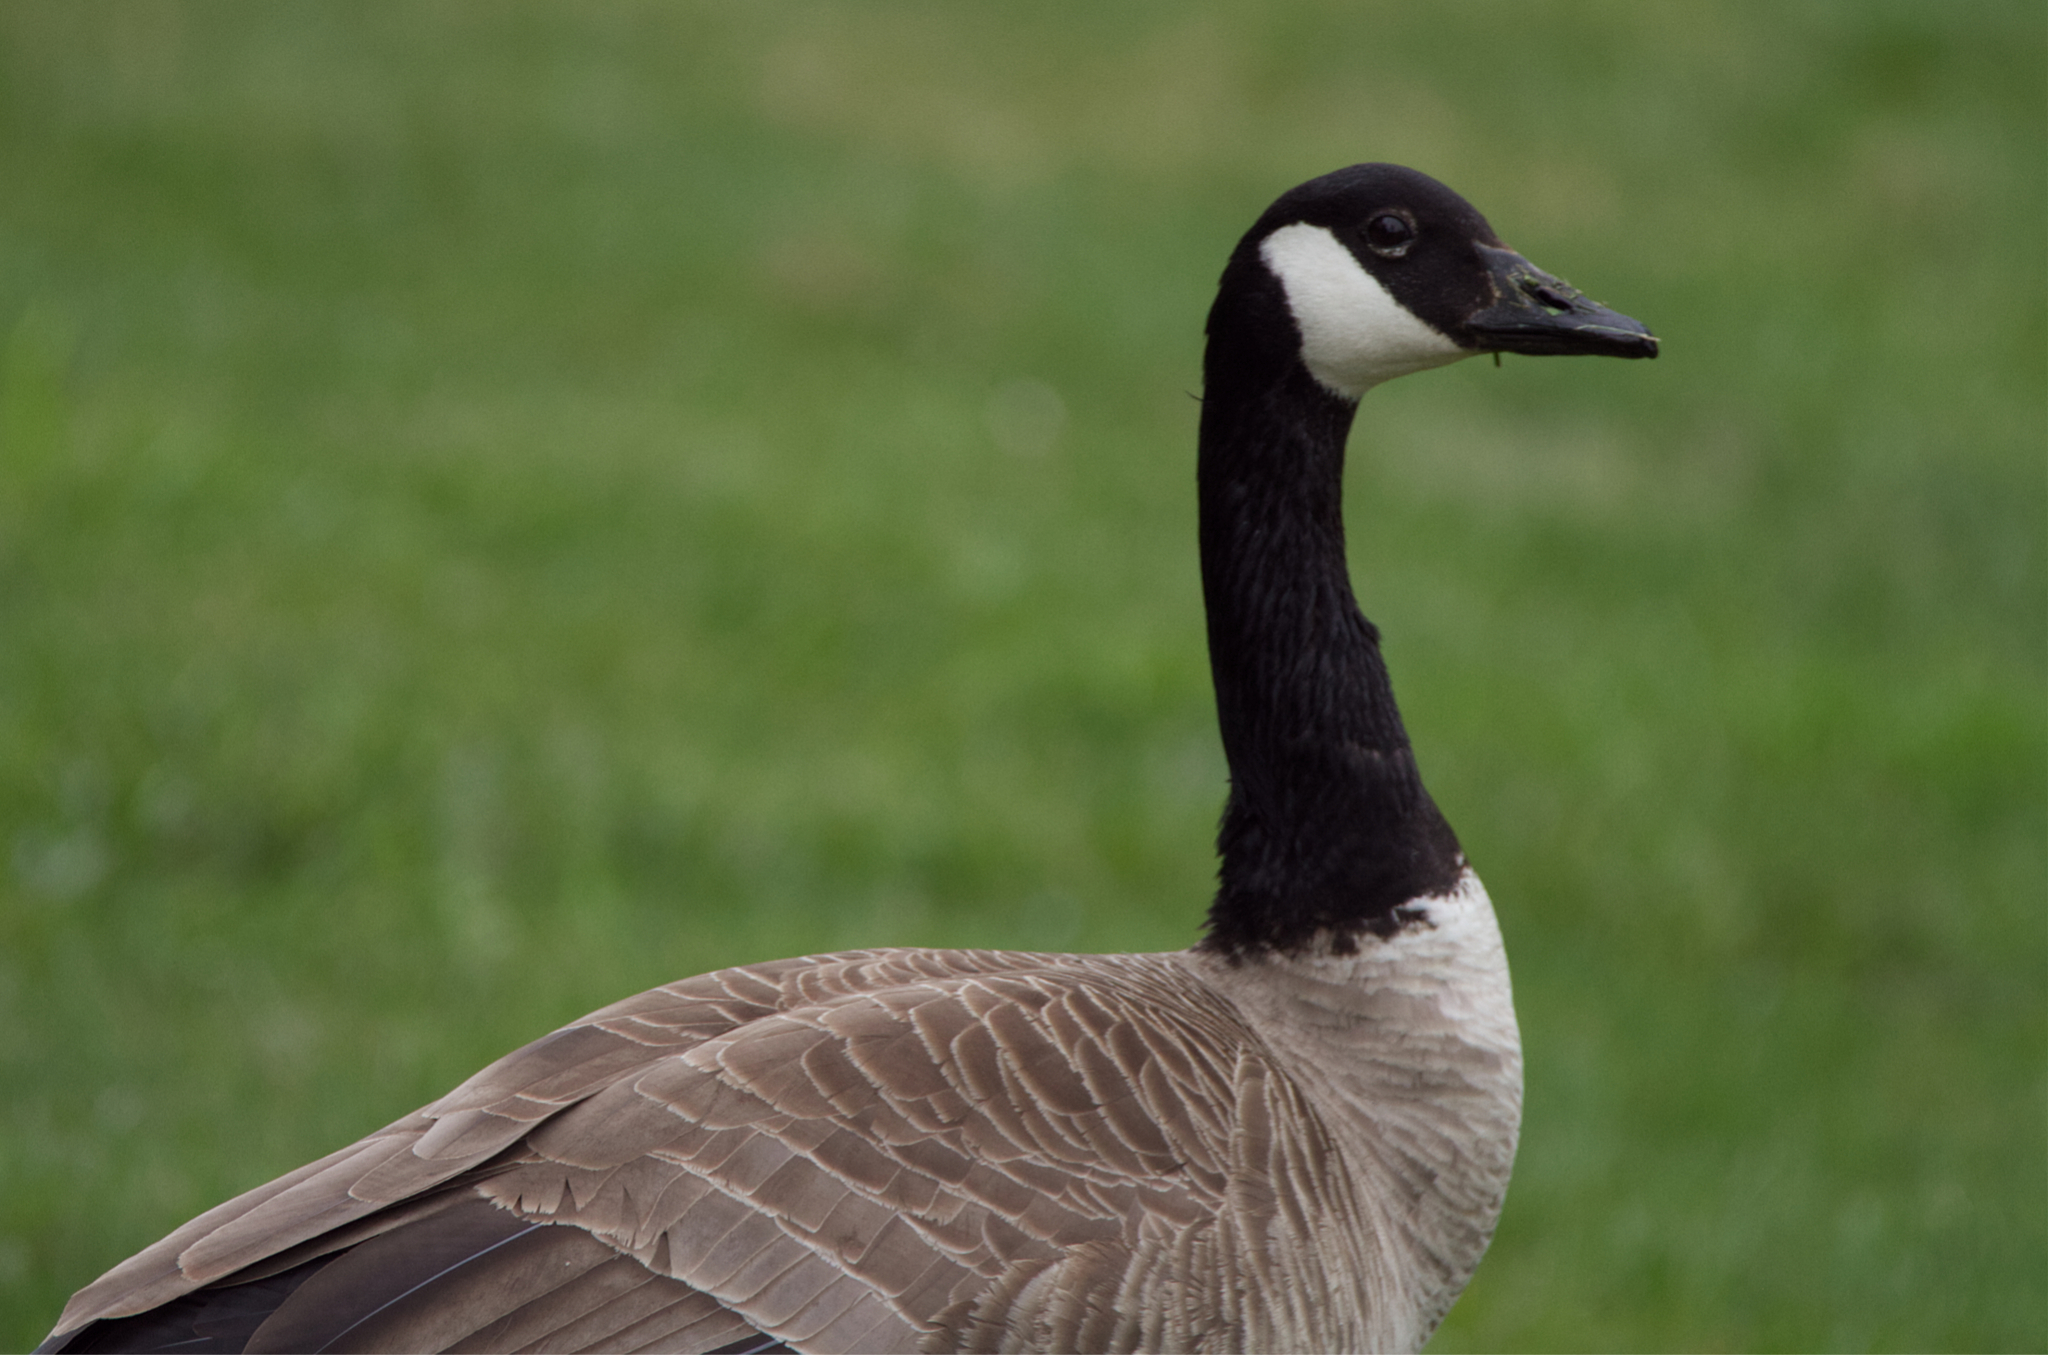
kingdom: Animalia
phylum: Chordata
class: Aves
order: Anseriformes
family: Anatidae
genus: Branta
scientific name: Branta canadensis
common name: Canada goose
